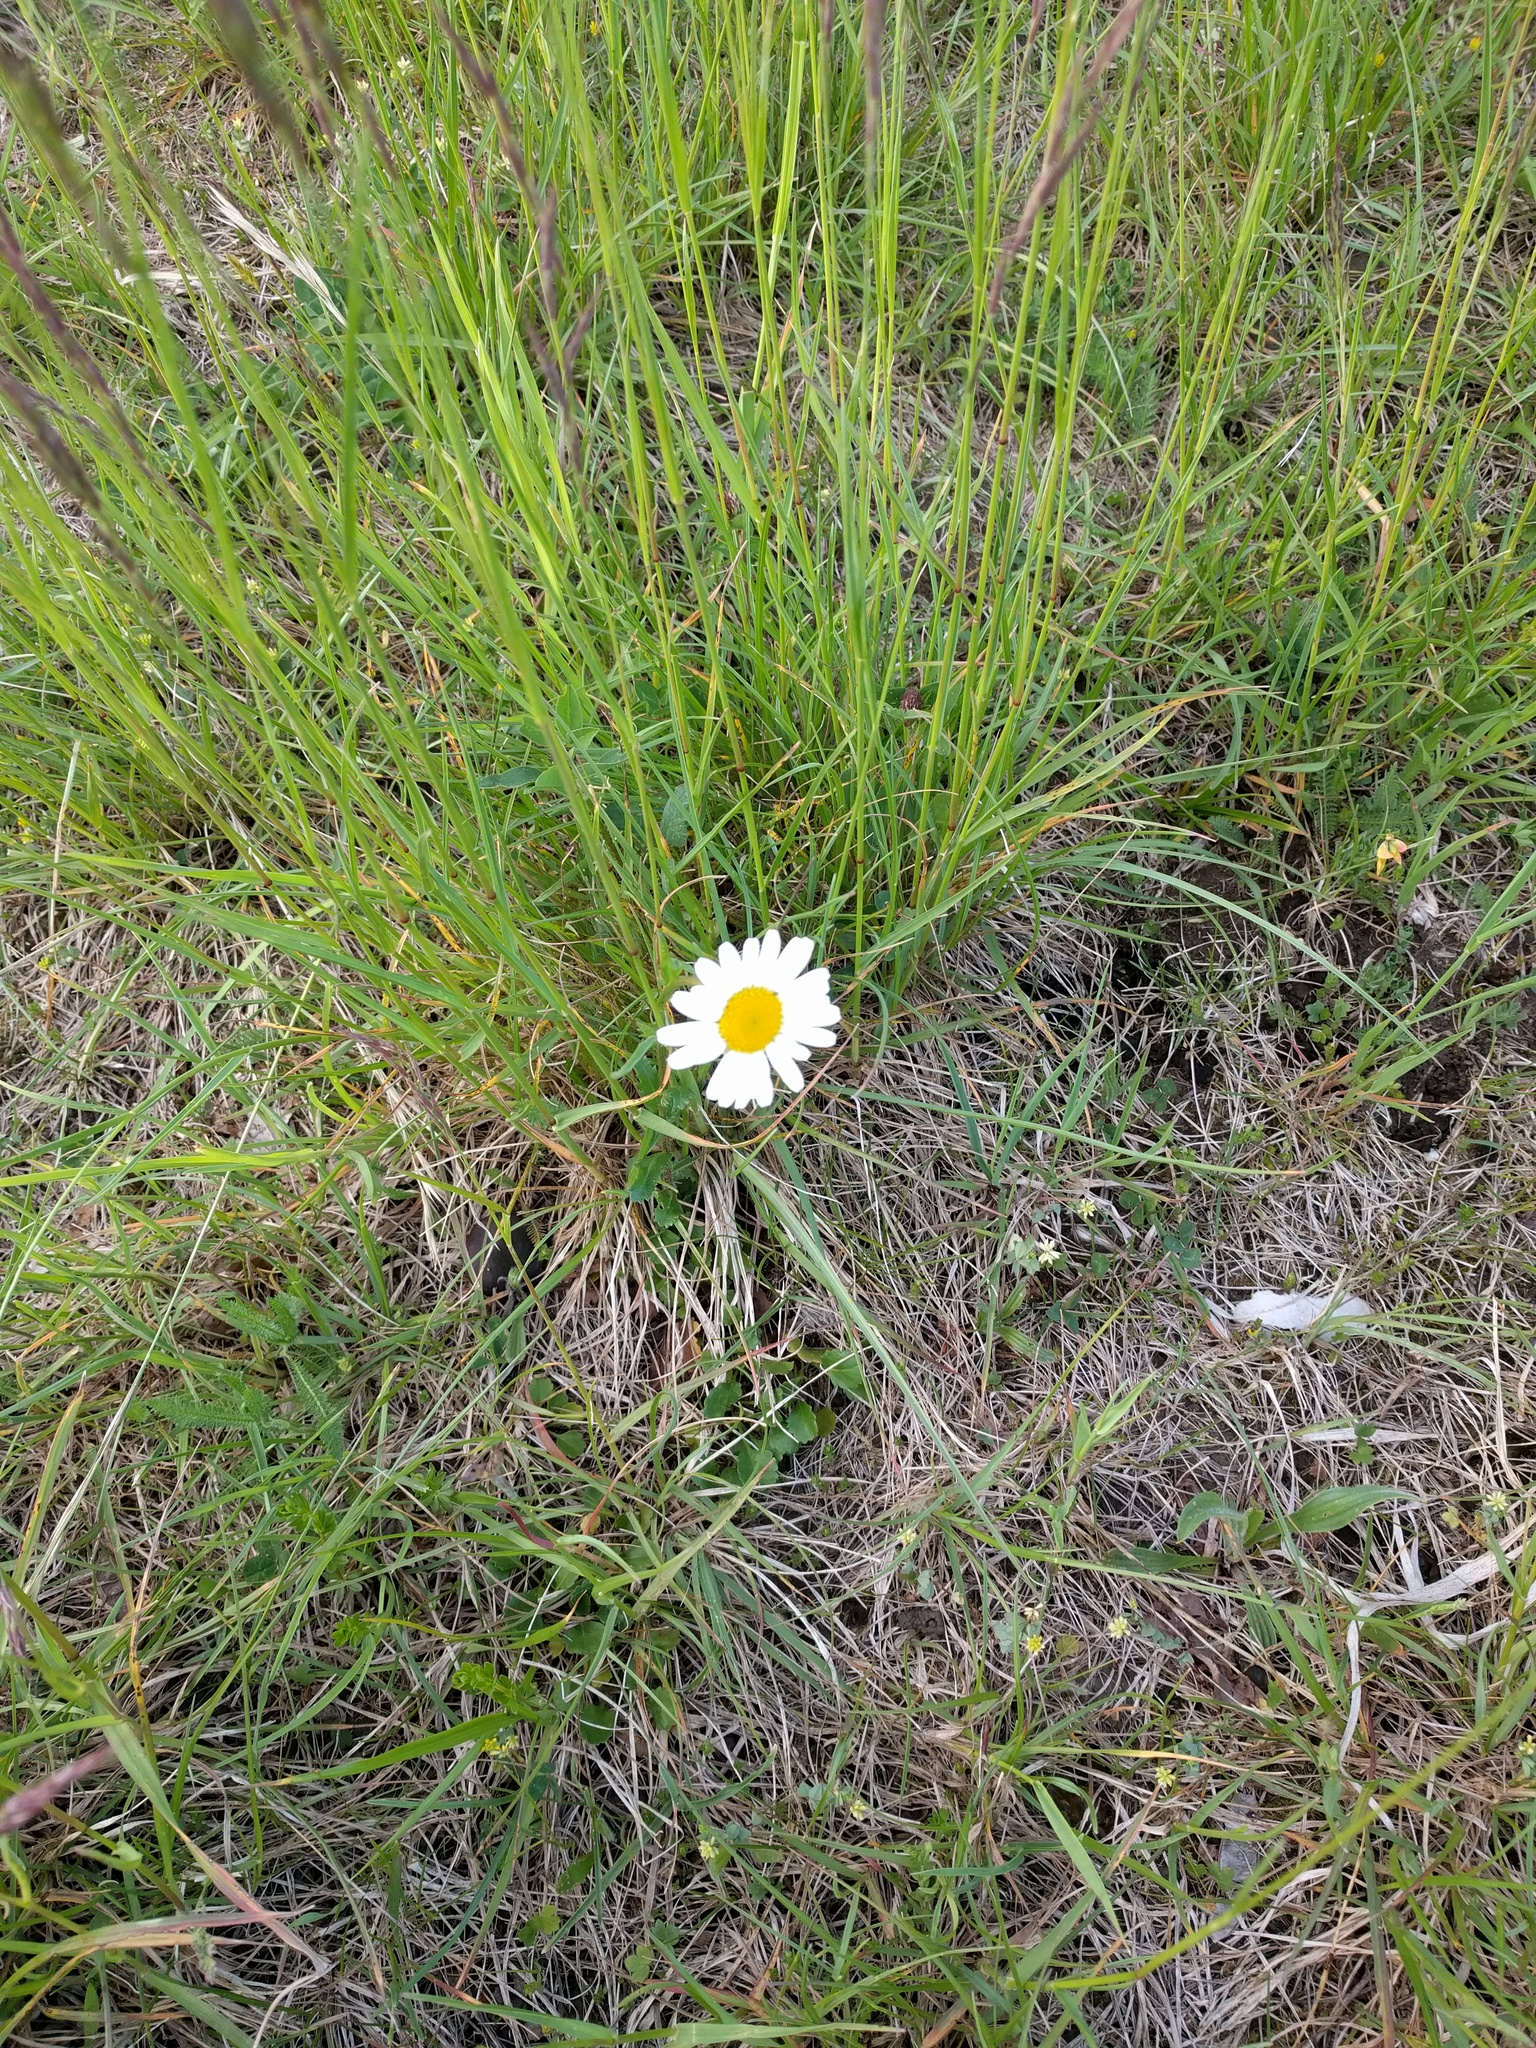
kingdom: Plantae
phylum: Tracheophyta
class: Magnoliopsida
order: Asterales
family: Asteraceae
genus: Leucanthemum
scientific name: Leucanthemum vulgare
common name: Oxeye daisy
